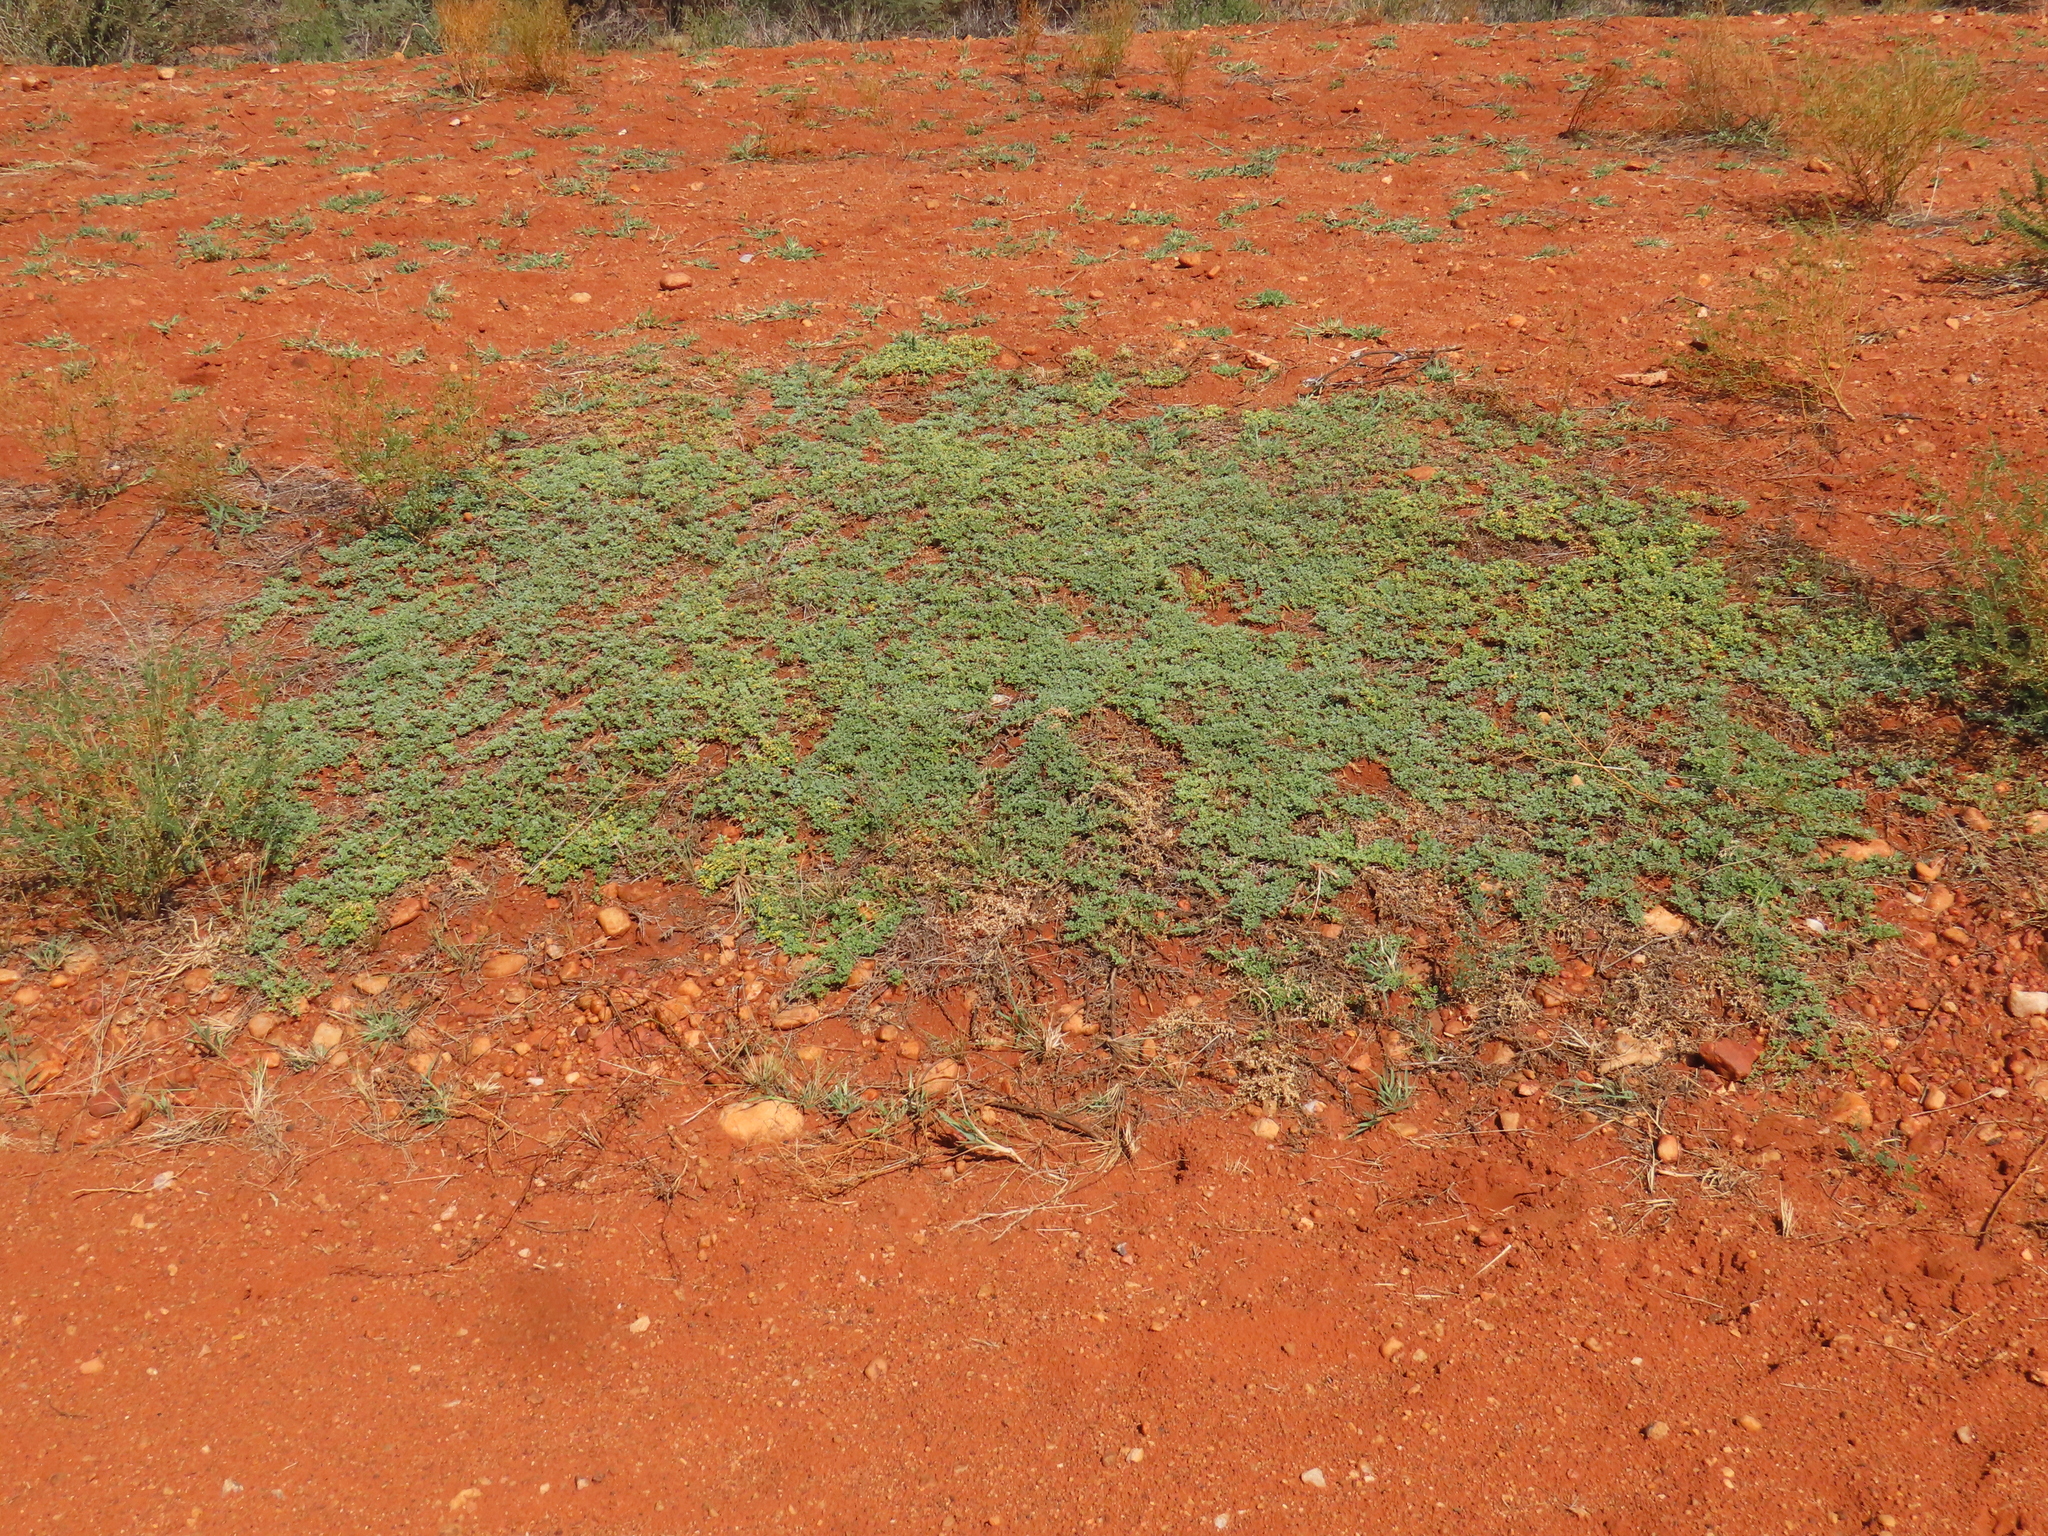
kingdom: Plantae
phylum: Tracheophyta
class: Magnoliopsida
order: Fabales
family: Fabaceae
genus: Cullen
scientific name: Cullen tomentosum
